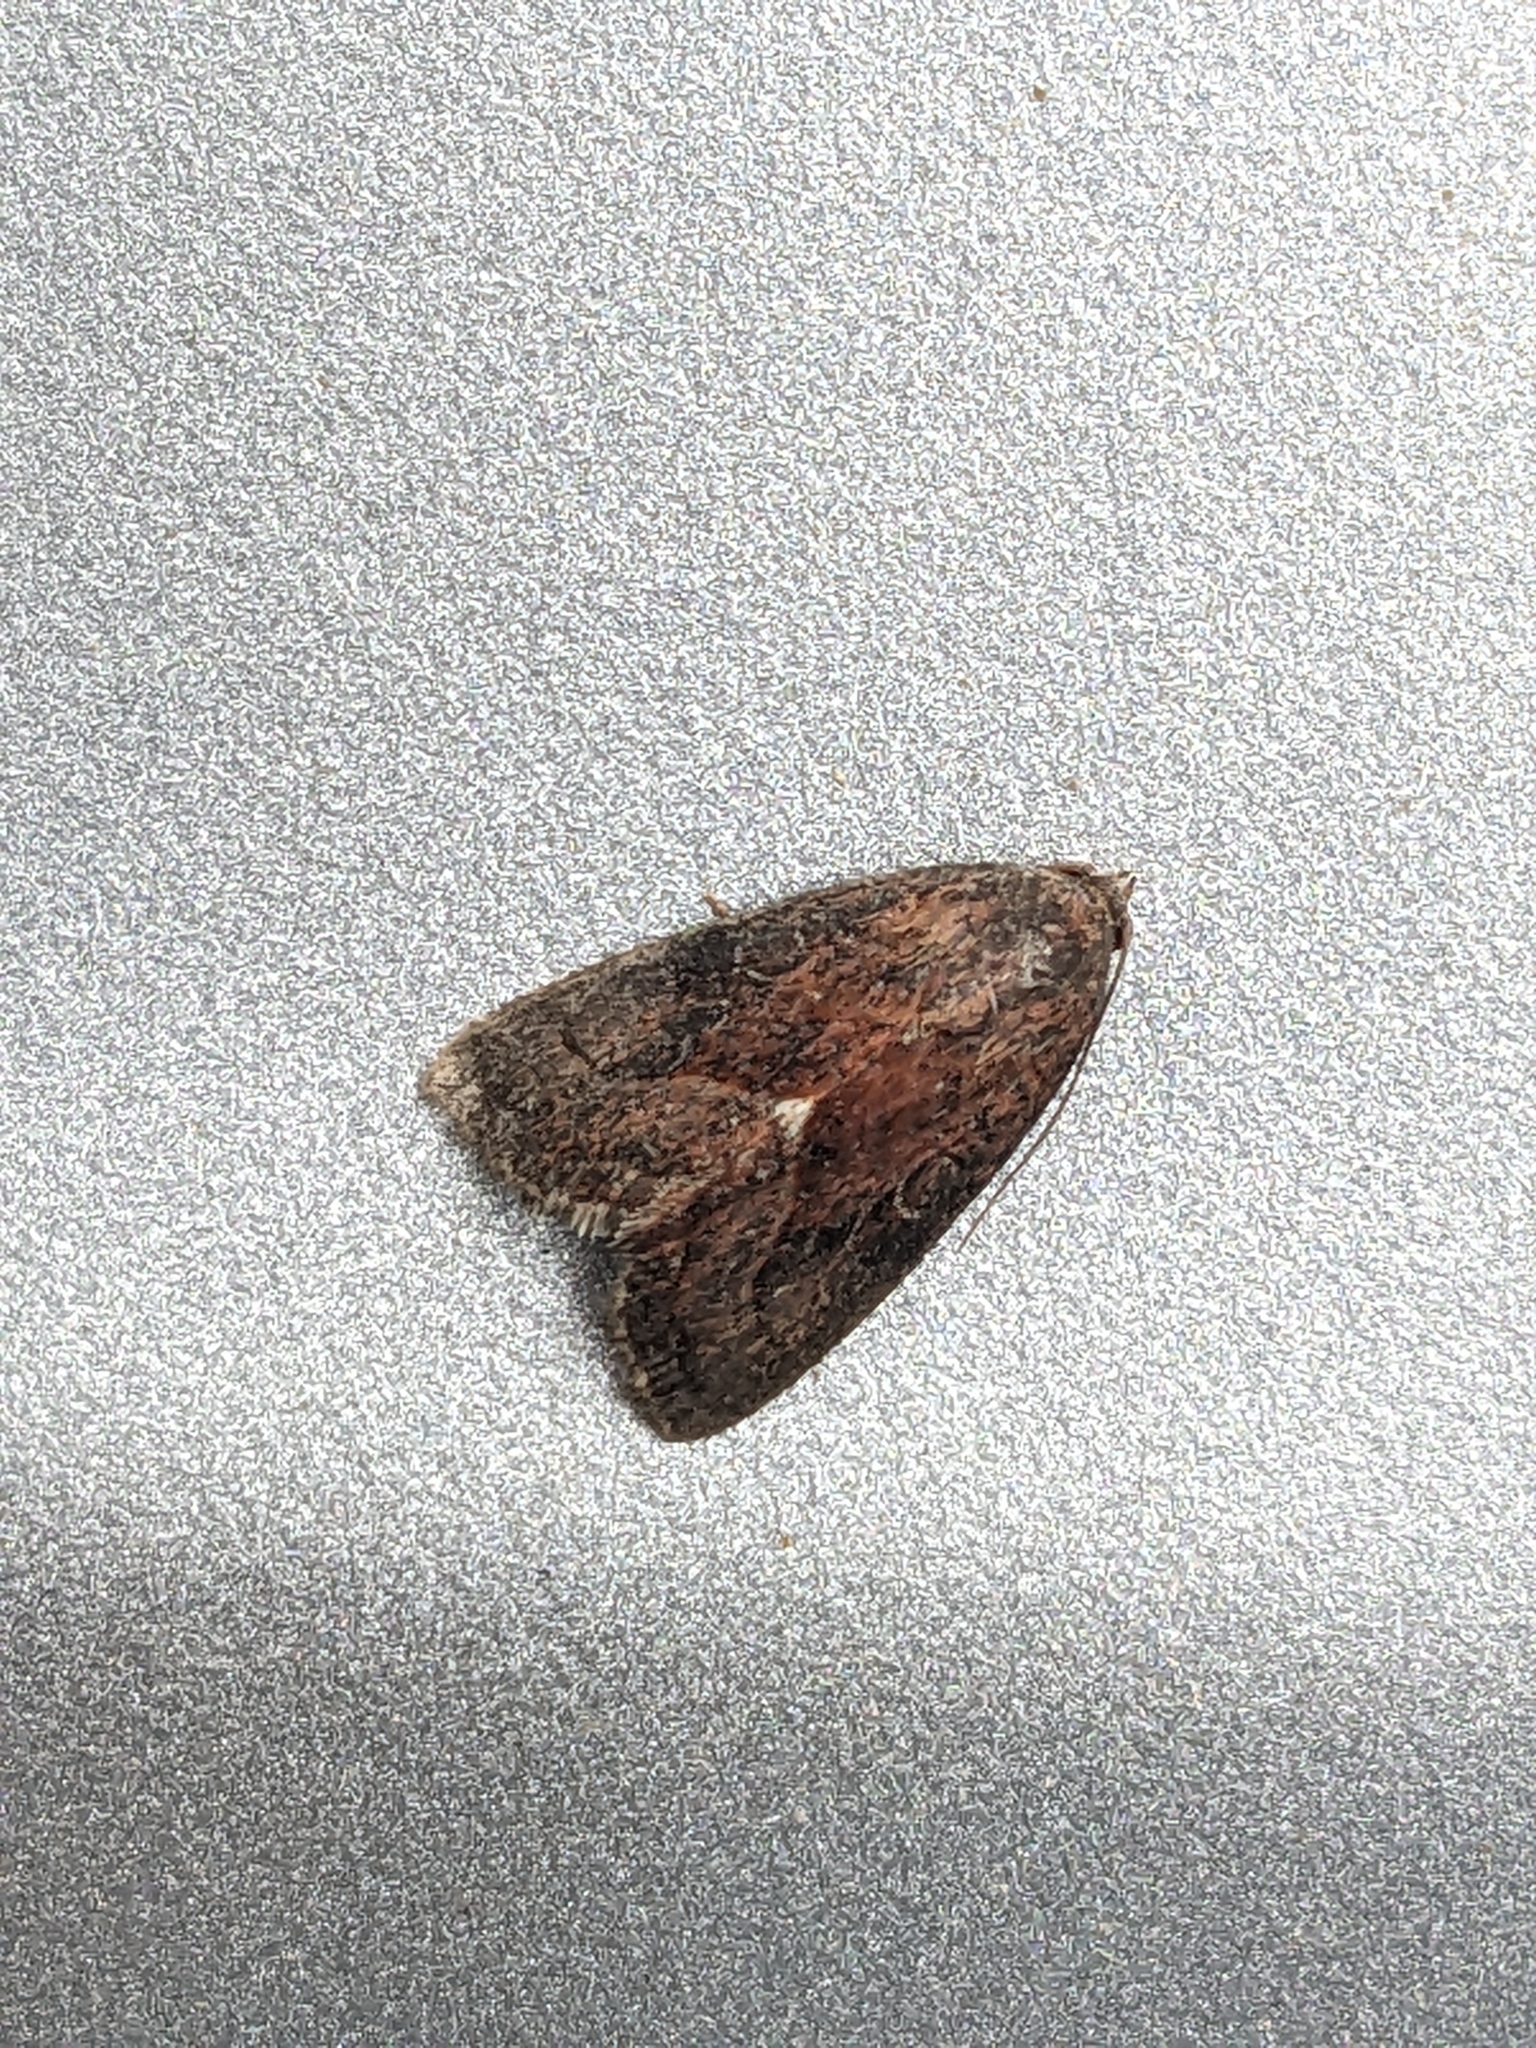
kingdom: Animalia
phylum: Arthropoda
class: Insecta
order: Lepidoptera
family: Noctuidae
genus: Galgula
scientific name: Galgula partita
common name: Wedgeling
